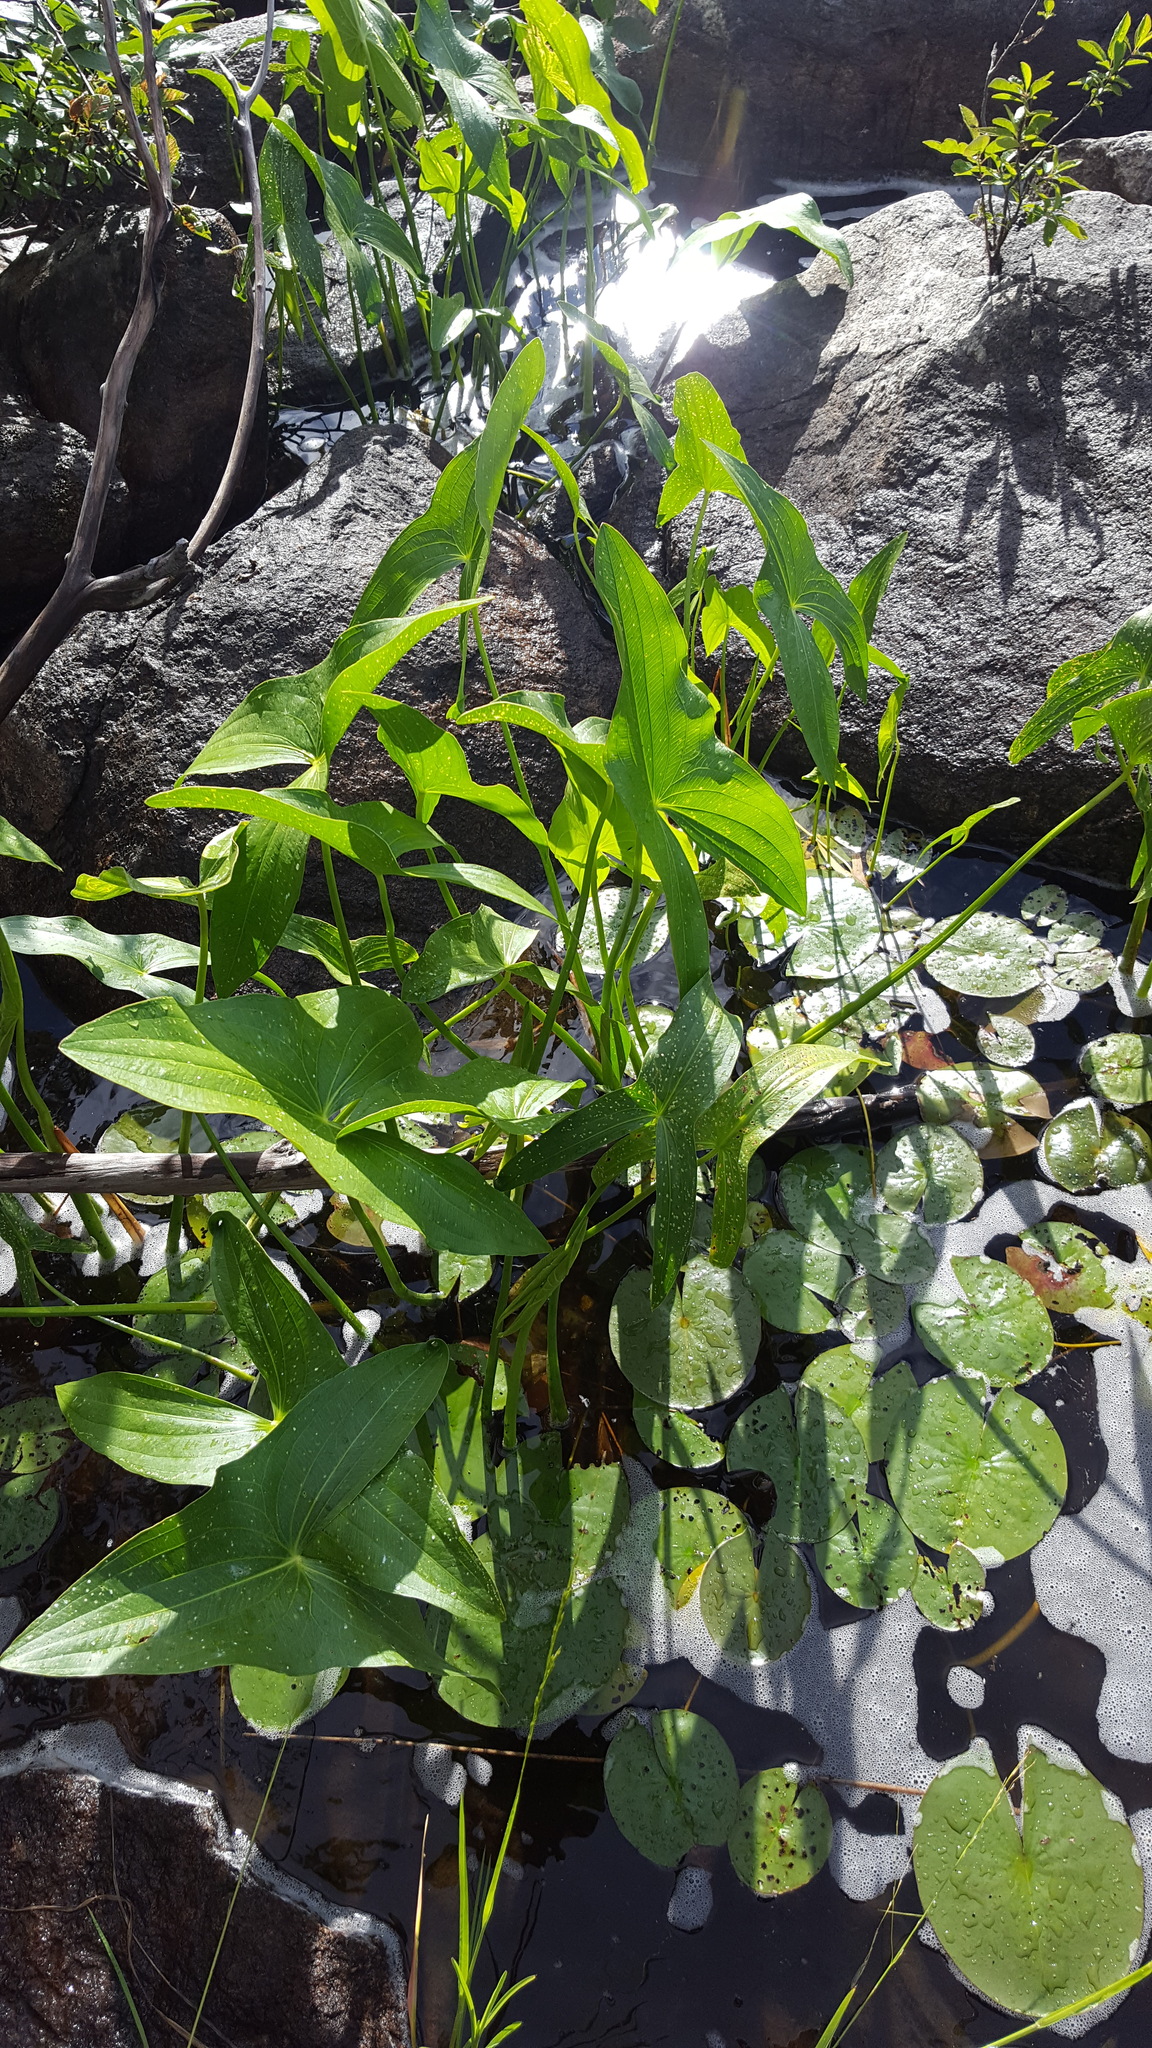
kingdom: Plantae
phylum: Tracheophyta
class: Liliopsida
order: Alismatales
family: Alismataceae
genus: Sagittaria
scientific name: Sagittaria latifolia
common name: Duck-potato
